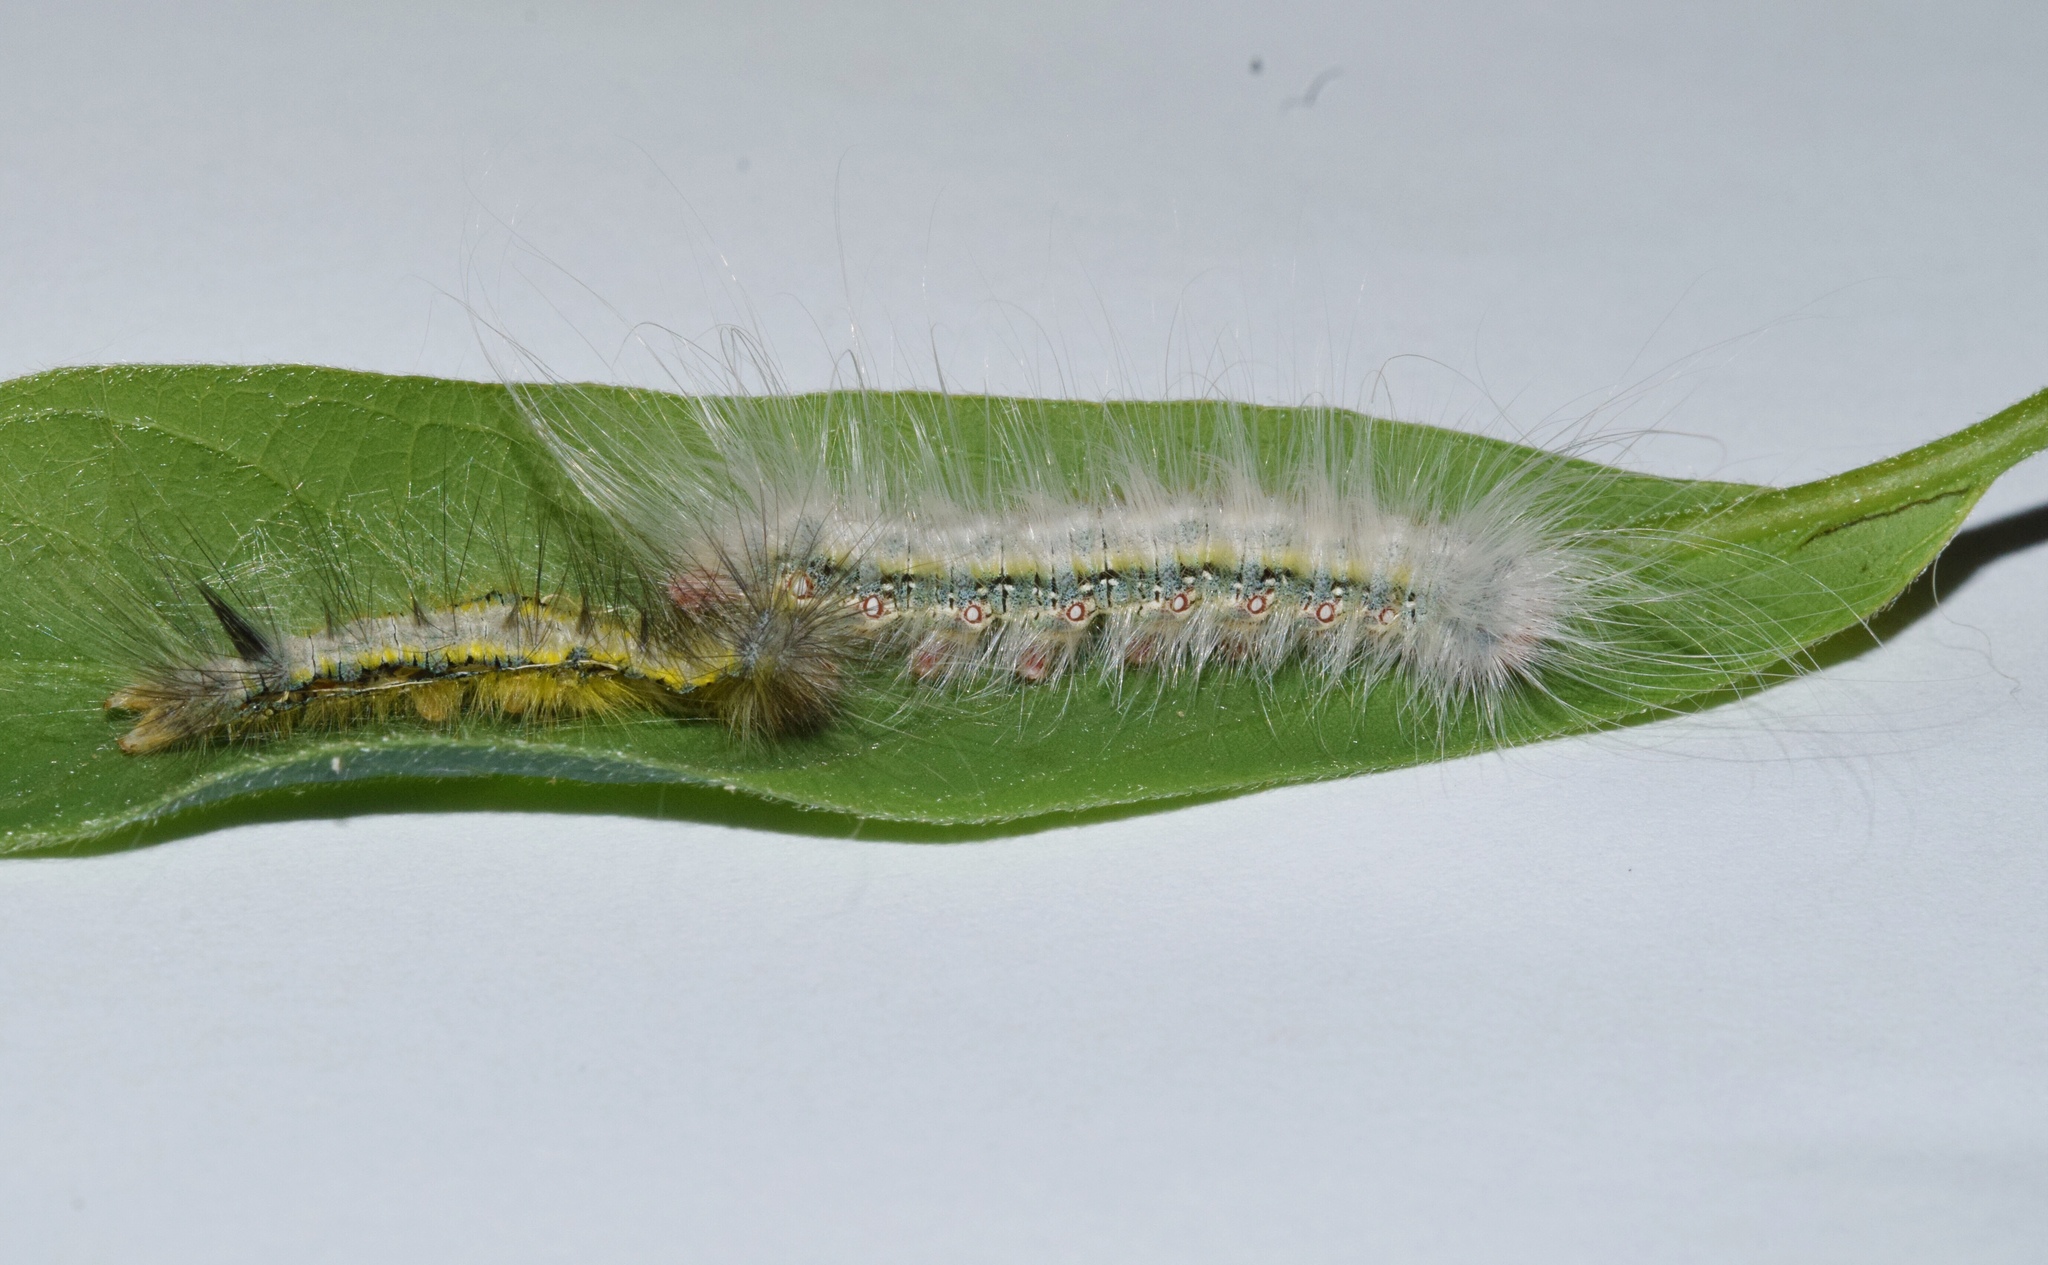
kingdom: Animalia
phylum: Arthropoda
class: Insecta
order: Lepidoptera
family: Eupterotidae
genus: Poloma
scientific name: Poloma angulata
